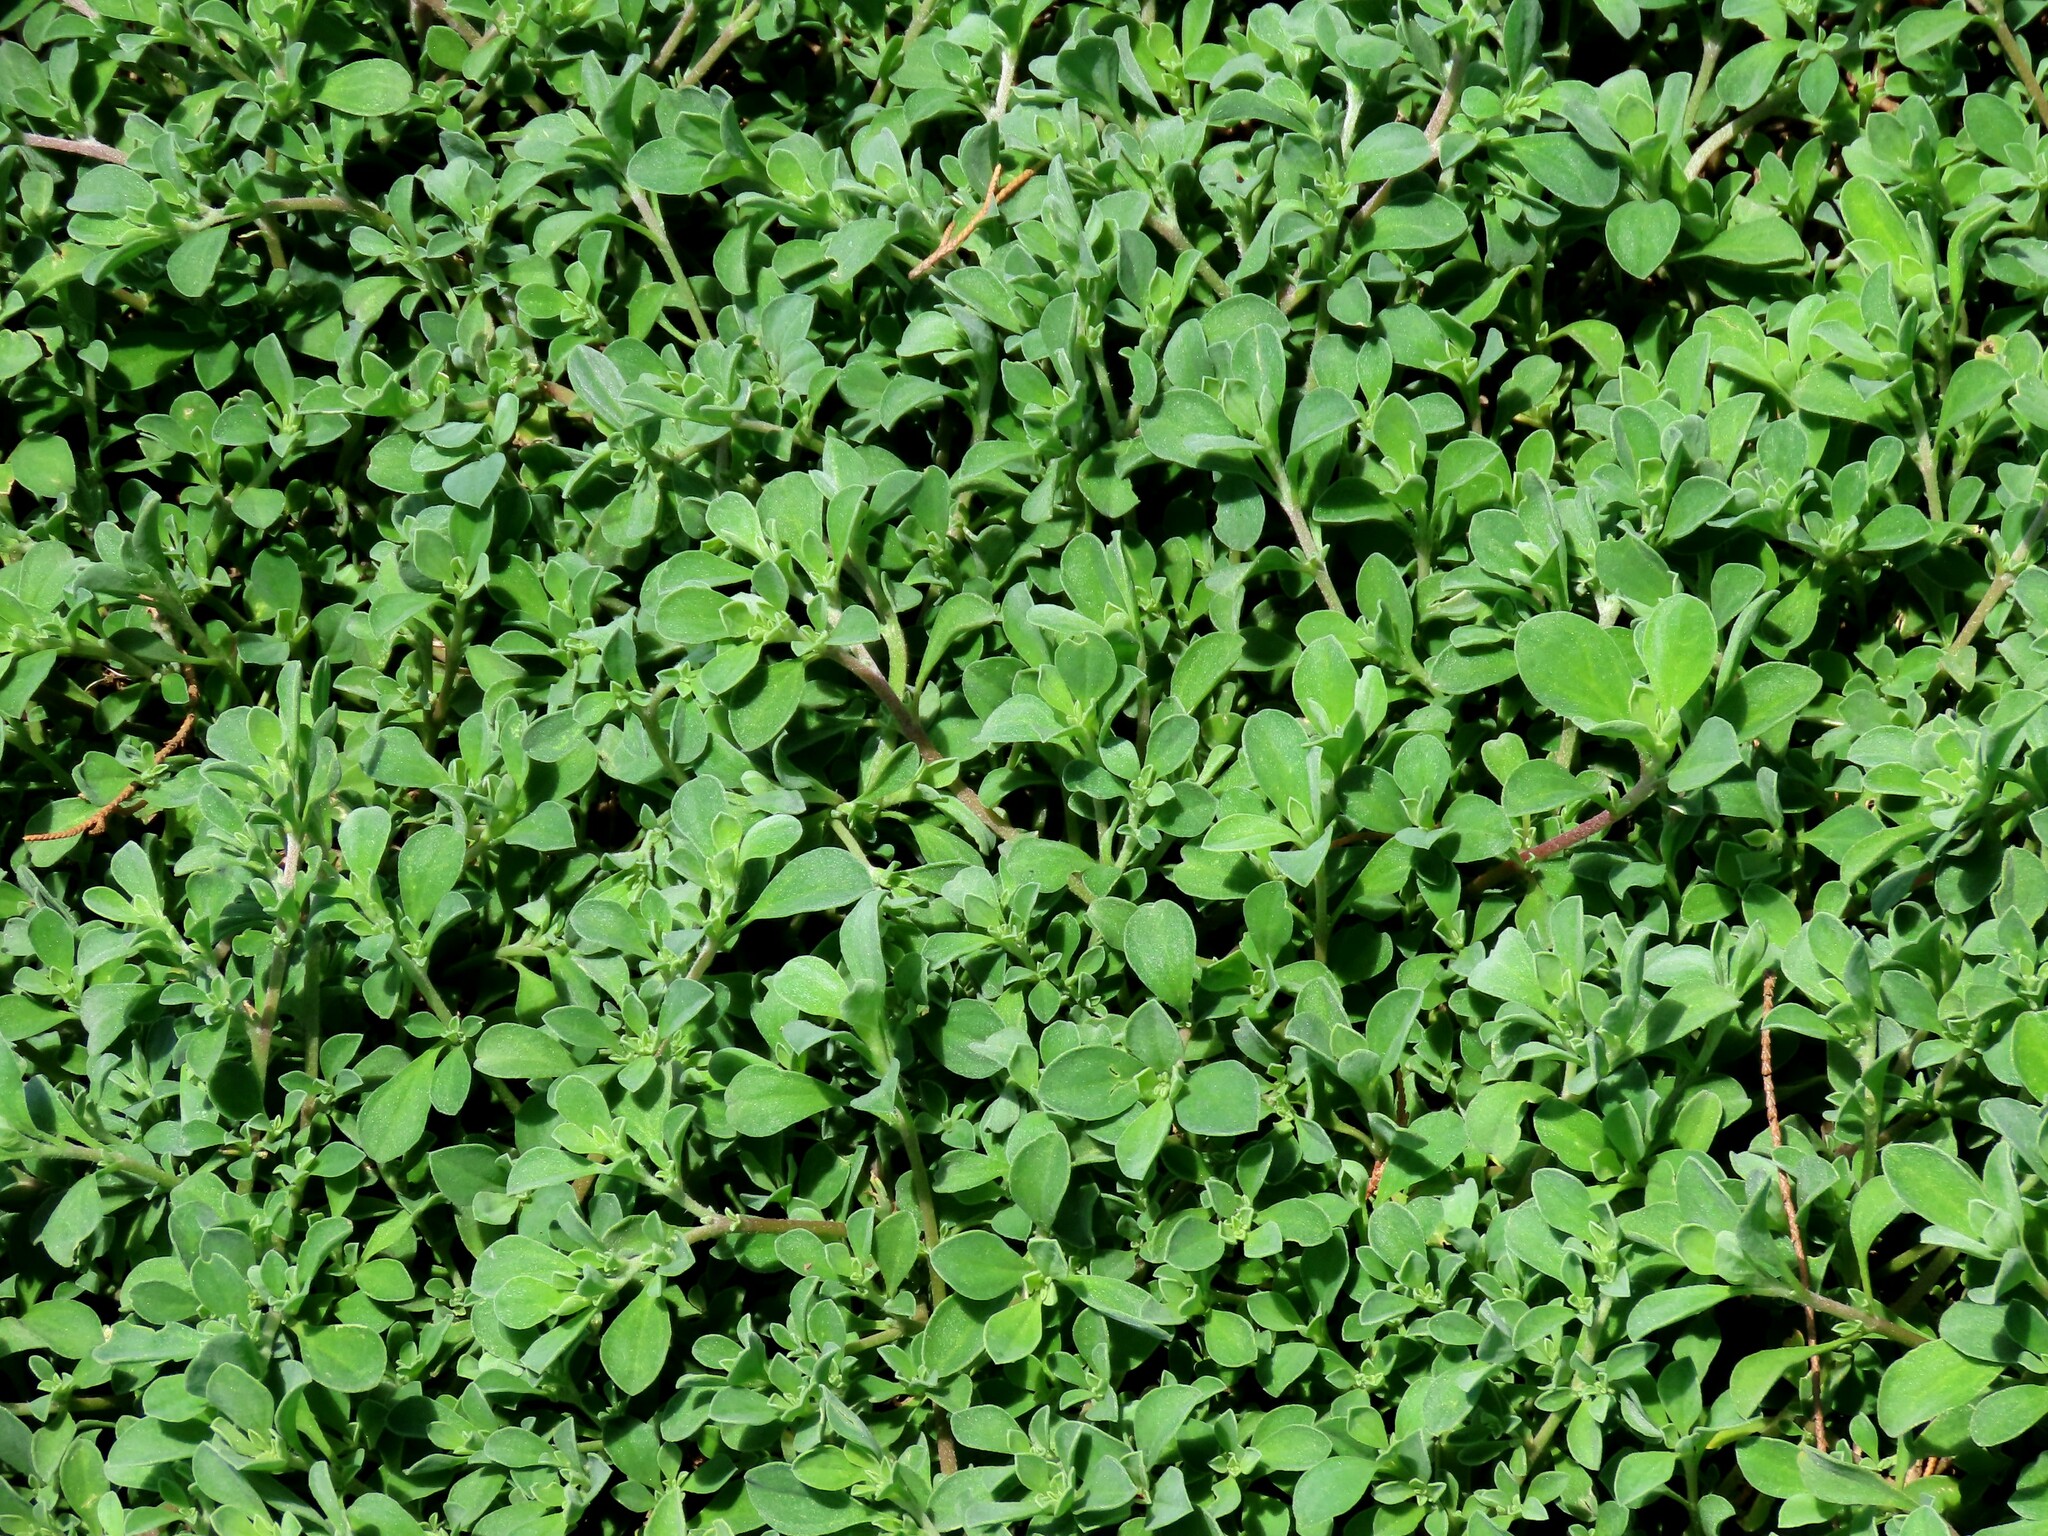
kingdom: Plantae
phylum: Tracheophyta
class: Magnoliopsida
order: Caryophyllales
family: Aizoaceae
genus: Aizoon
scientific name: Aizoon pubescens
